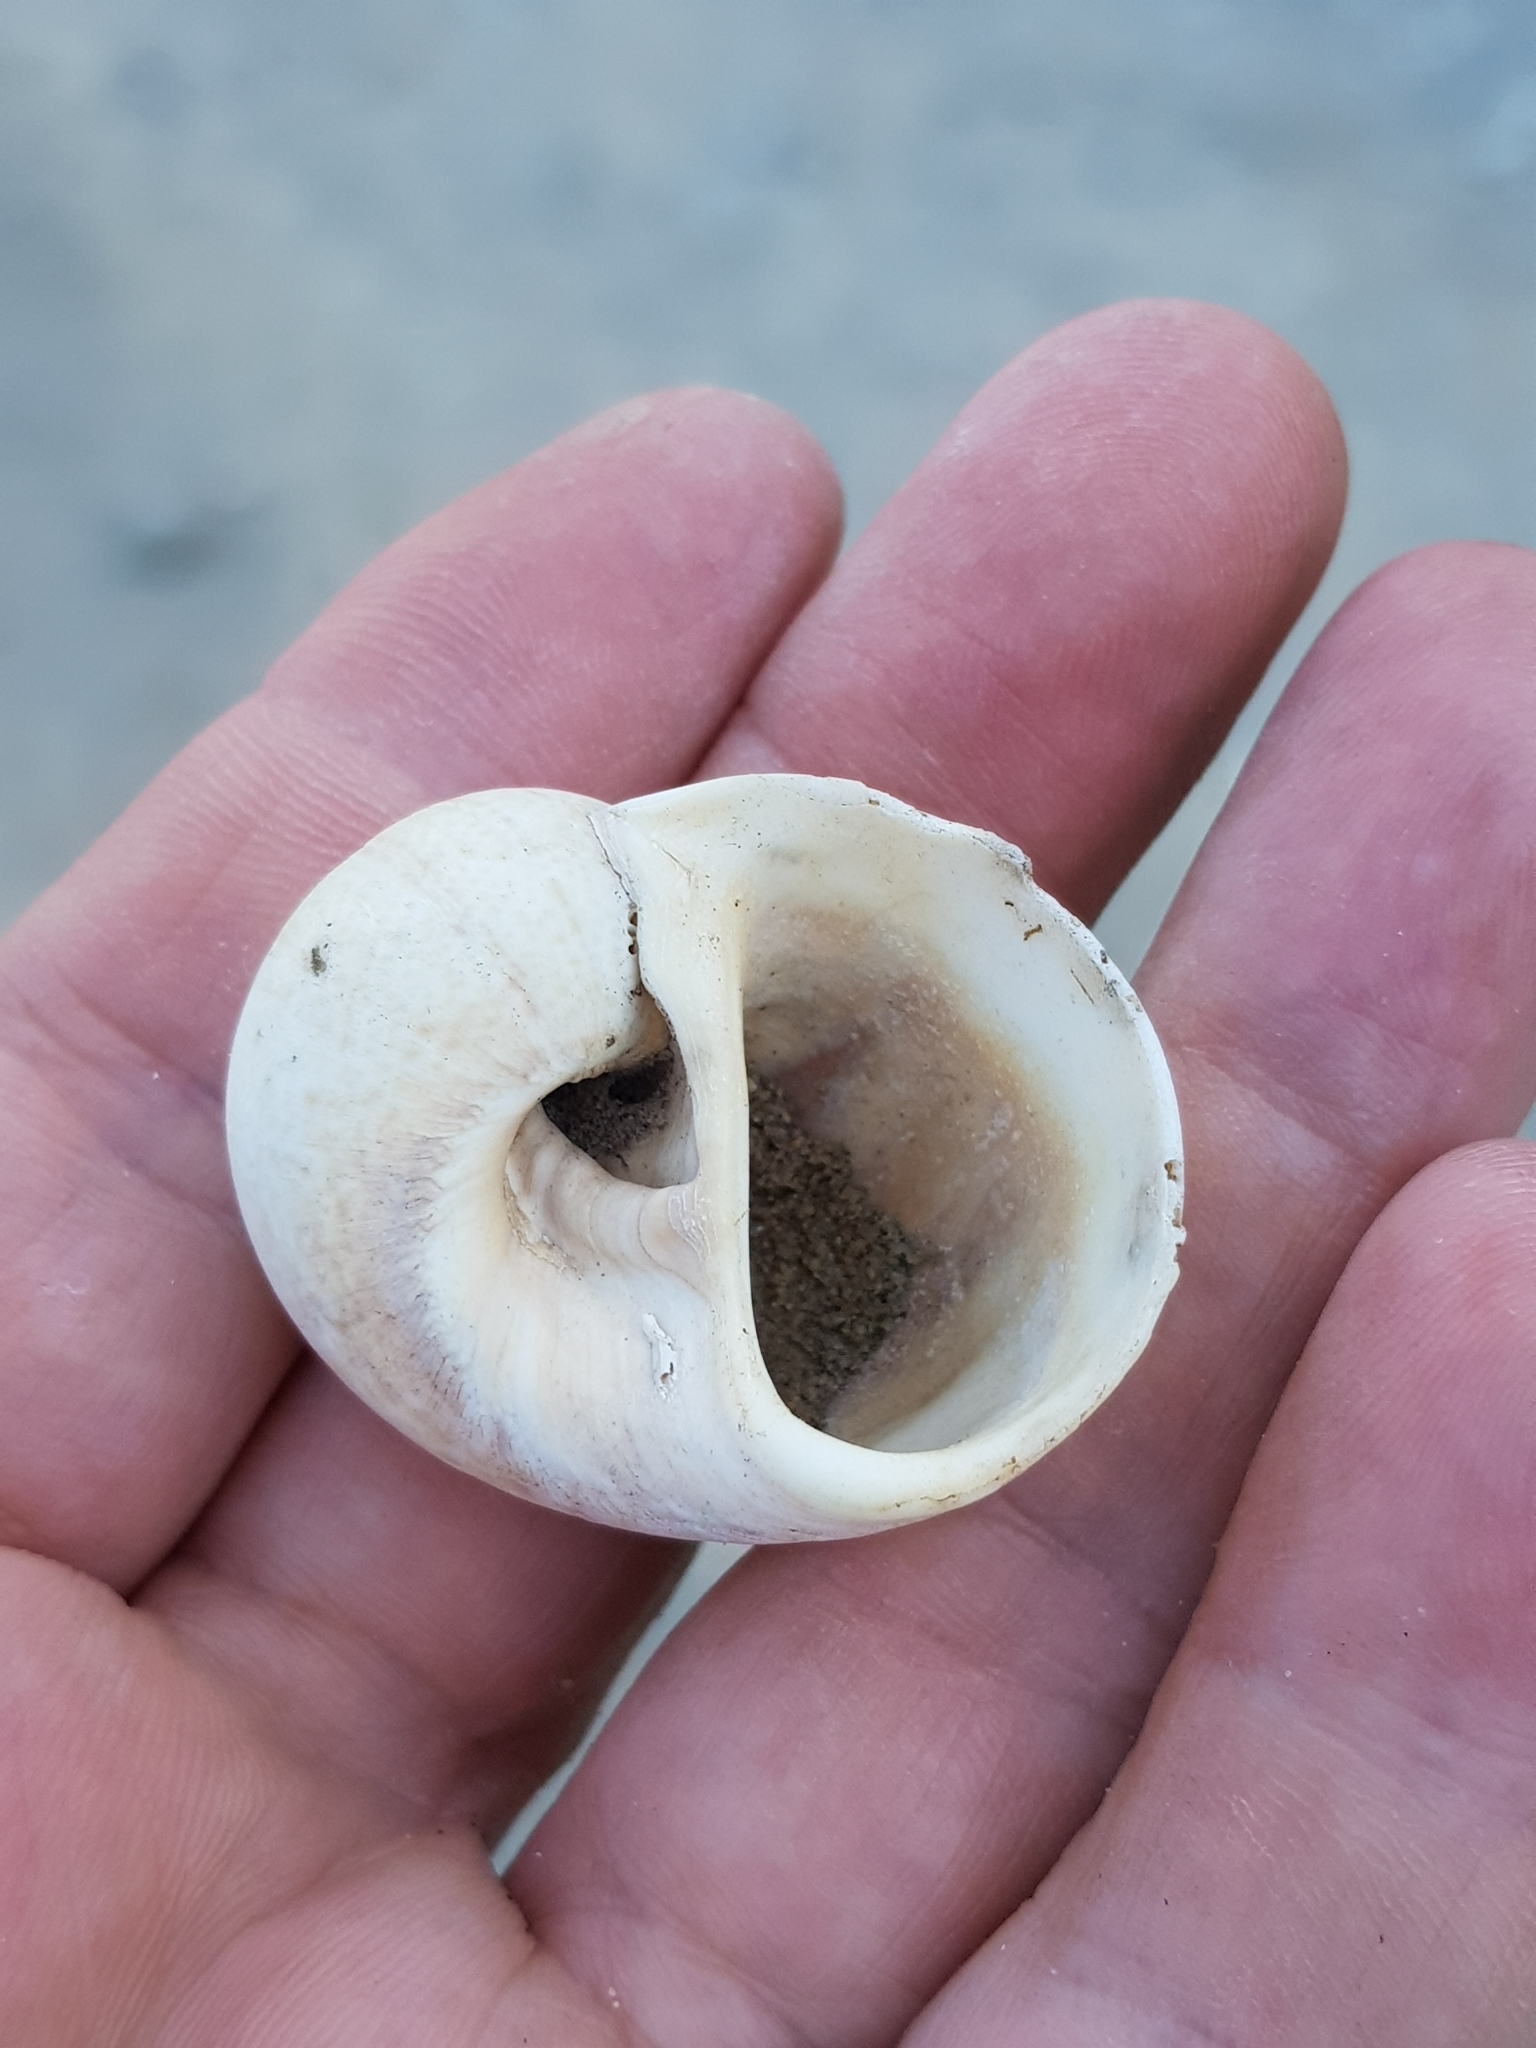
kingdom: Animalia
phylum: Mollusca
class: Gastropoda
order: Littorinimorpha
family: Naticidae
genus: Naticarius
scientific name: Naticarius stercusmuscarum
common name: Fly-speck moonsnail
